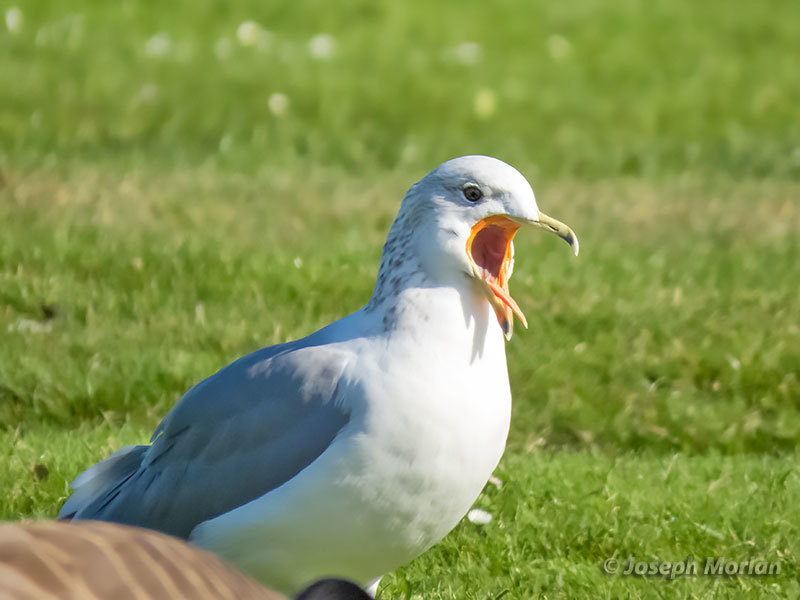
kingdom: Animalia
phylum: Chordata
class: Aves
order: Charadriiformes
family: Laridae
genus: Larus
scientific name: Larus californicus
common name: California gull
